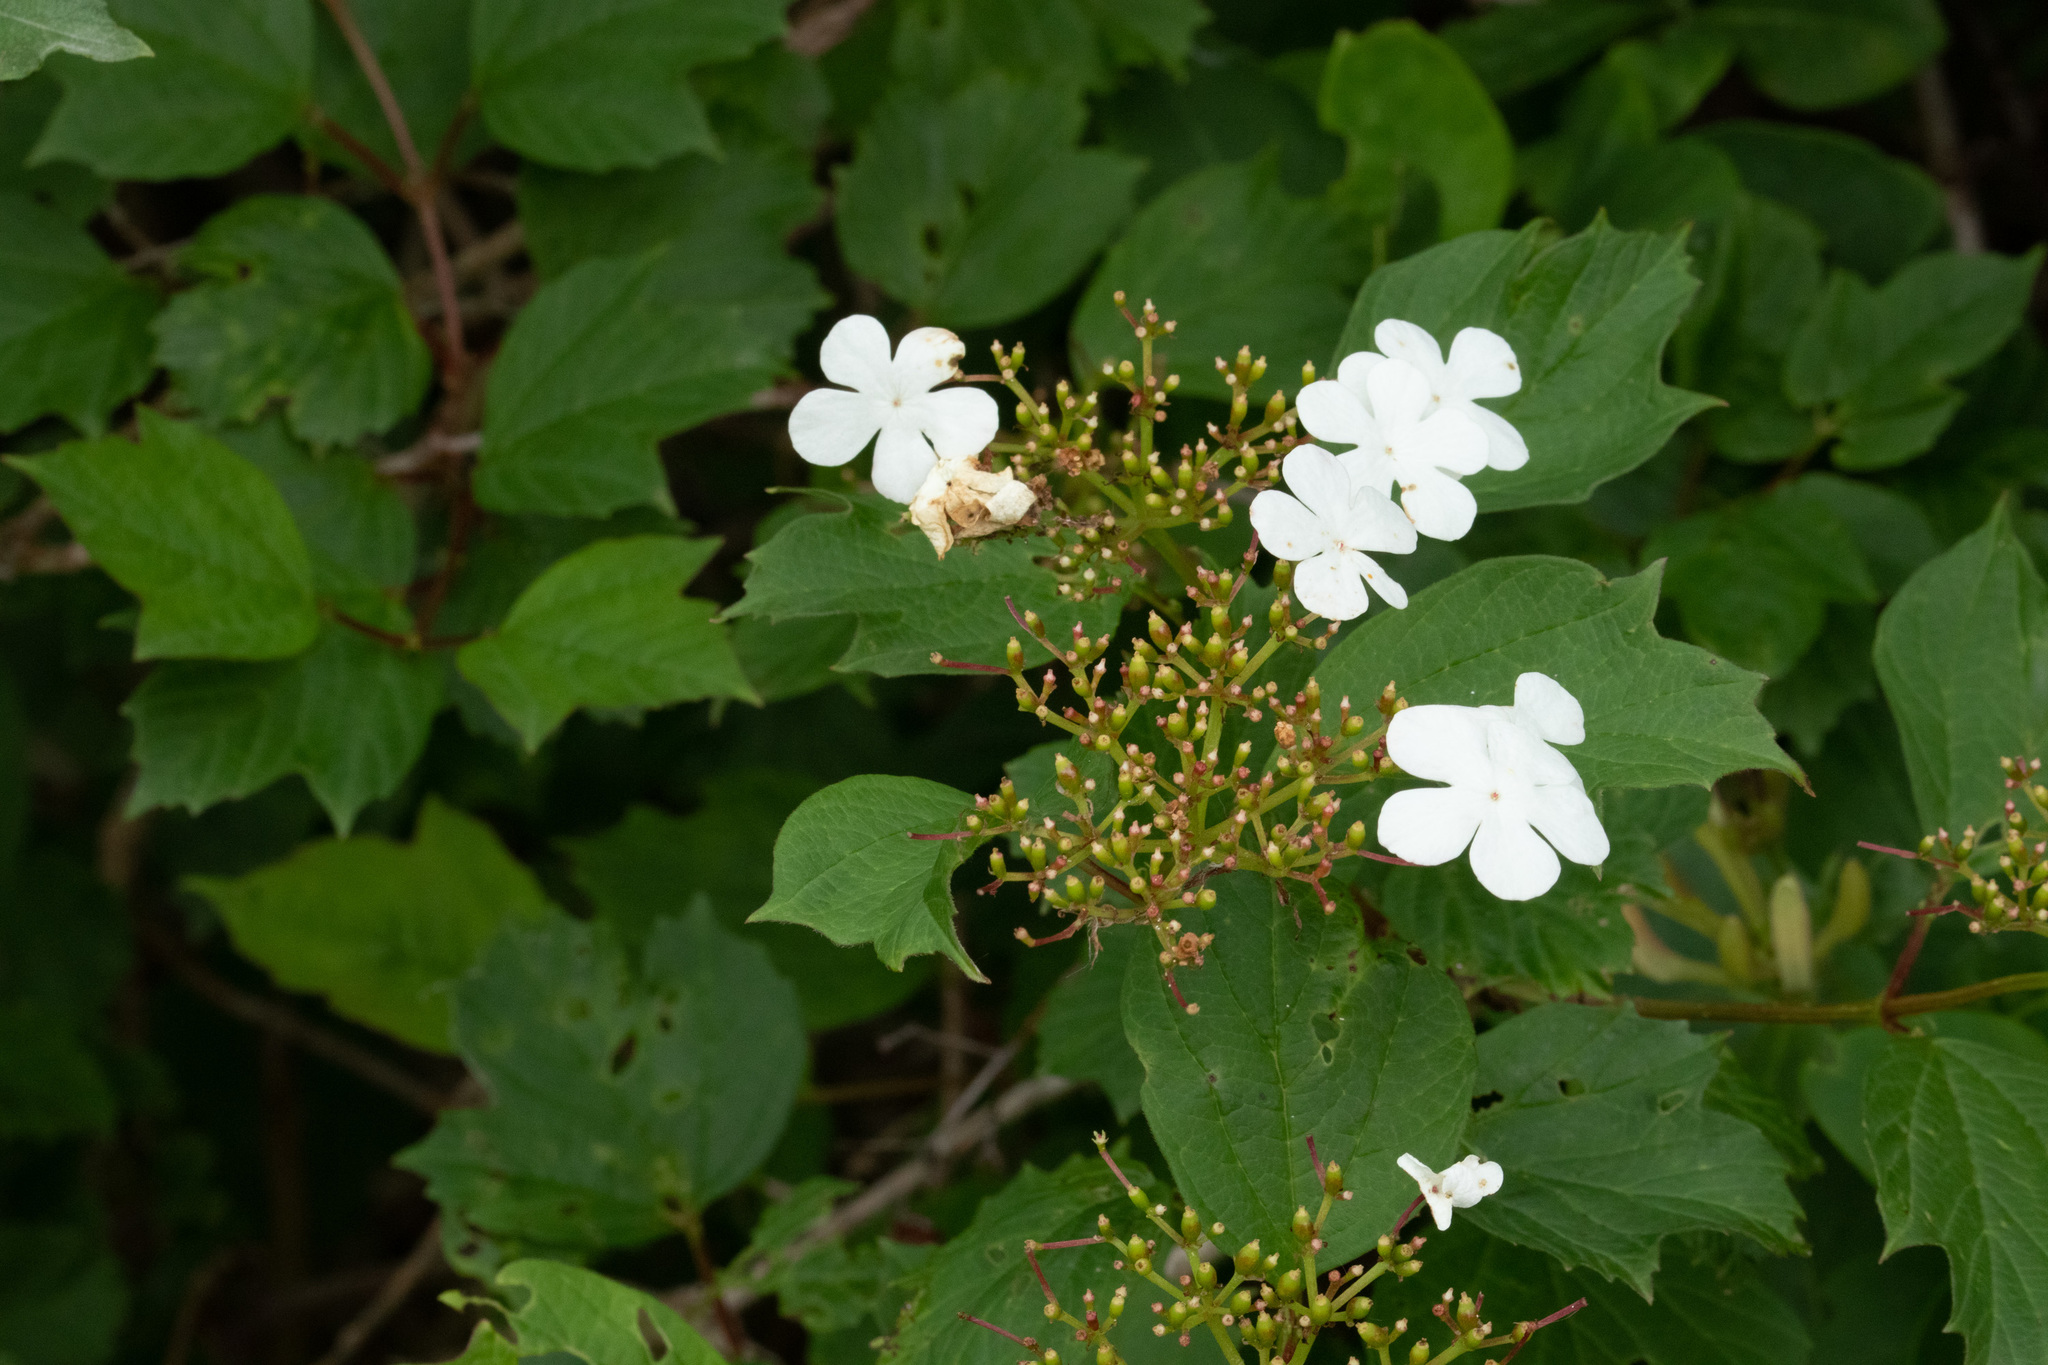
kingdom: Plantae
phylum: Tracheophyta
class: Magnoliopsida
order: Dipsacales
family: Viburnaceae
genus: Viburnum
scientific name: Viburnum opulus
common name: Guelder-rose
